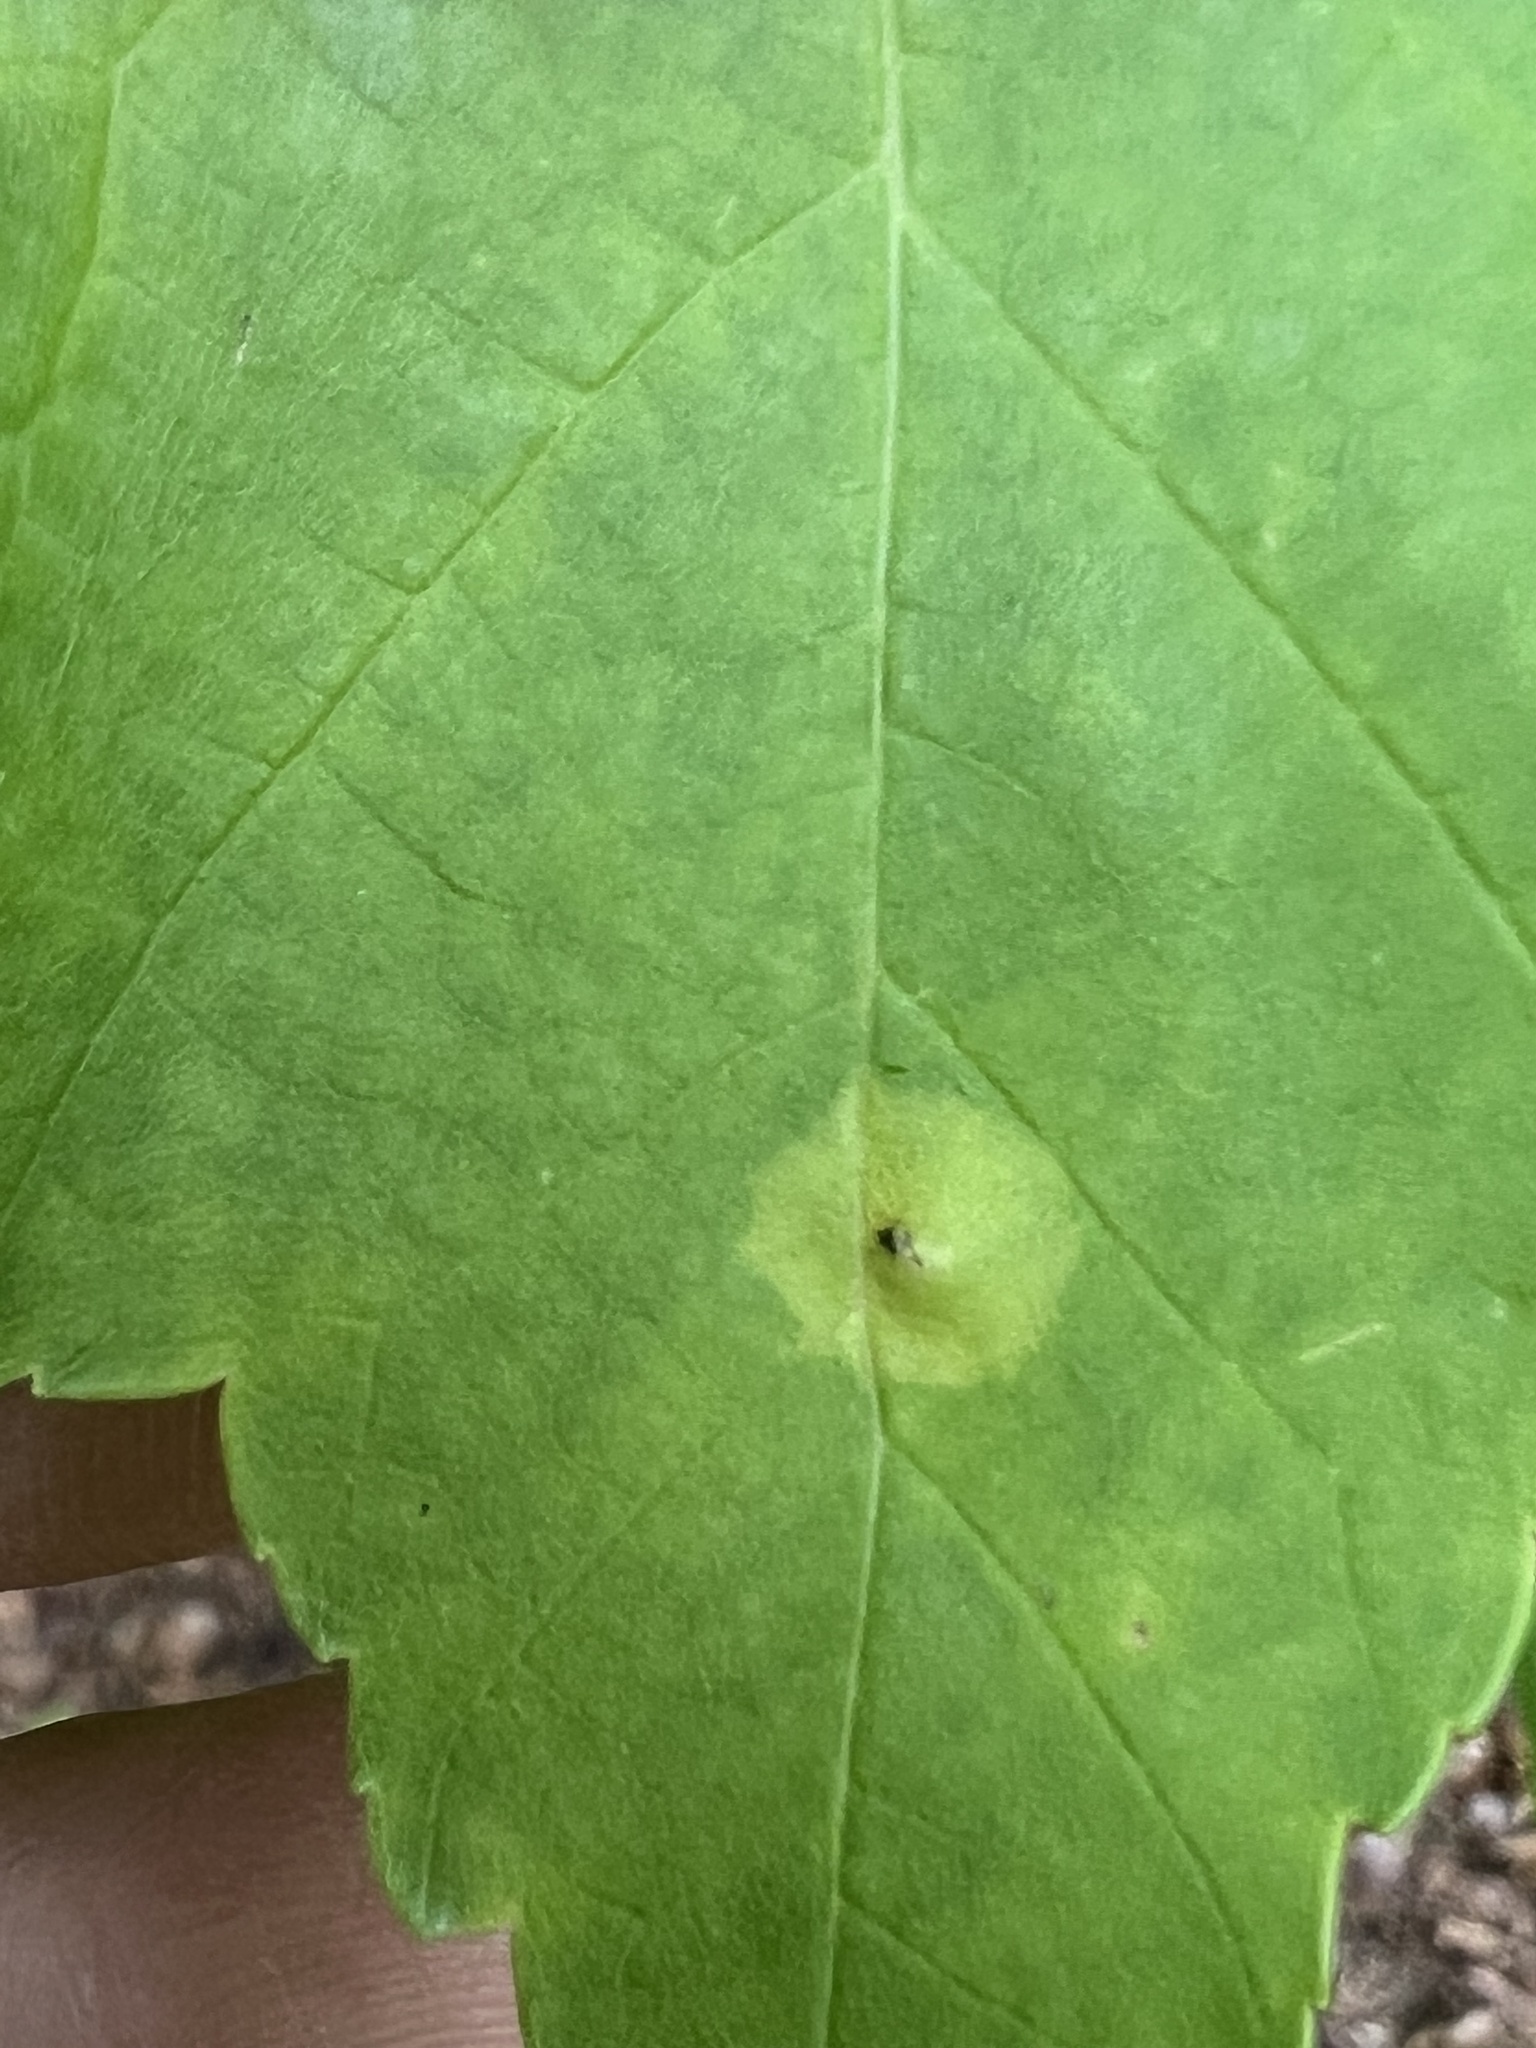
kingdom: Animalia
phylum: Arthropoda
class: Insecta
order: Diptera
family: Cecidomyiidae
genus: Acericecis
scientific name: Acericecis ocellaris
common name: Ocellate gall midge
